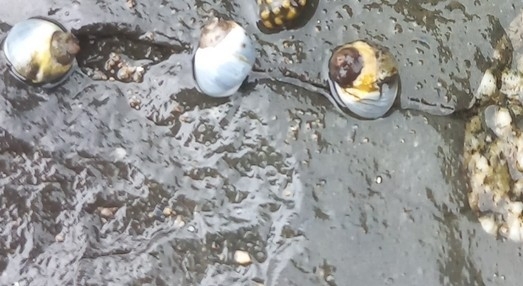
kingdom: Animalia
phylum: Mollusca
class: Gastropoda
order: Littorinimorpha
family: Littorinidae
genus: Afrolittorina
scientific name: Afrolittorina africana
